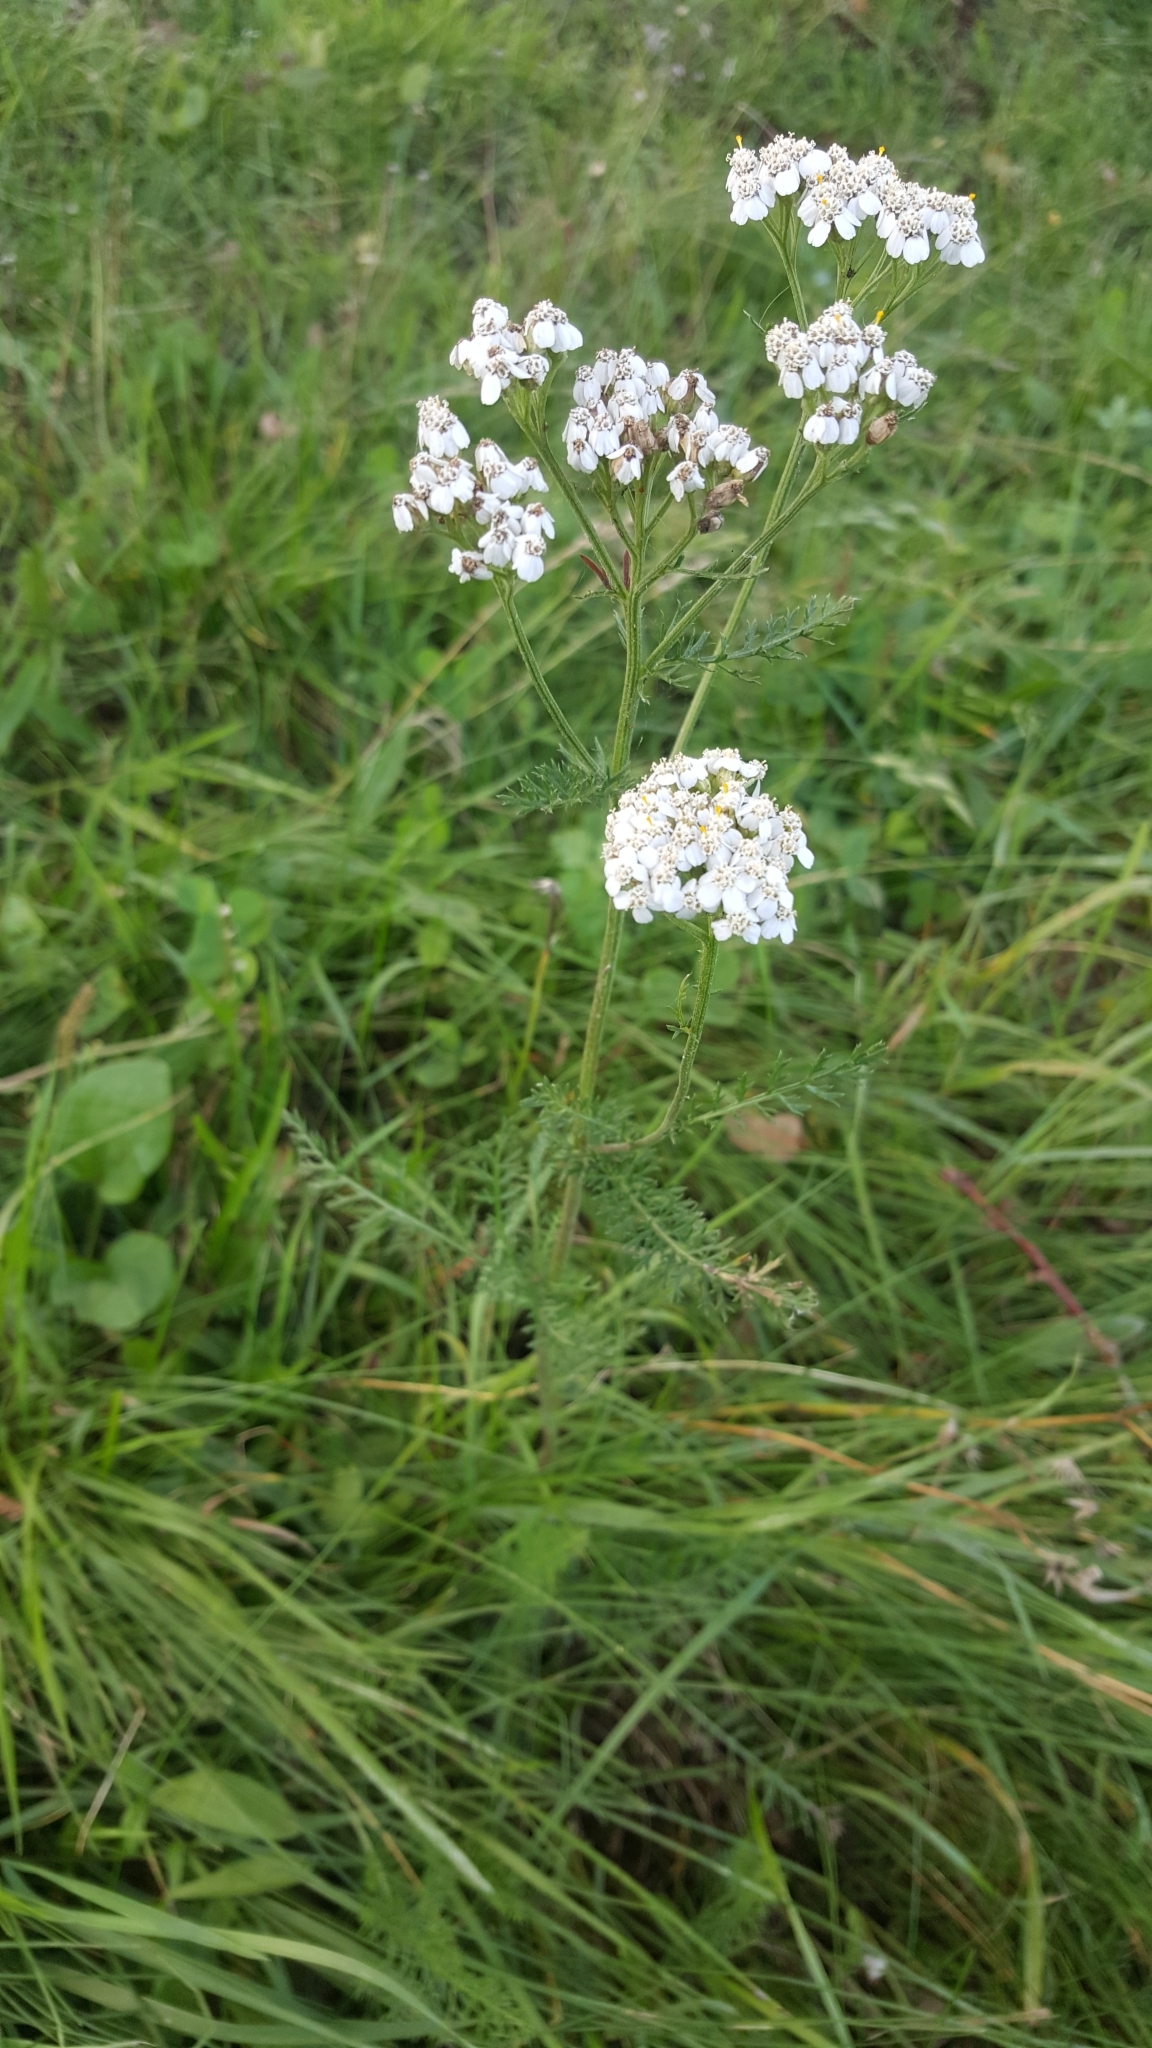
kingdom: Plantae
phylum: Tracheophyta
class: Magnoliopsida
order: Asterales
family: Asteraceae
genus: Achillea
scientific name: Achillea millefolium
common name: Yarrow
